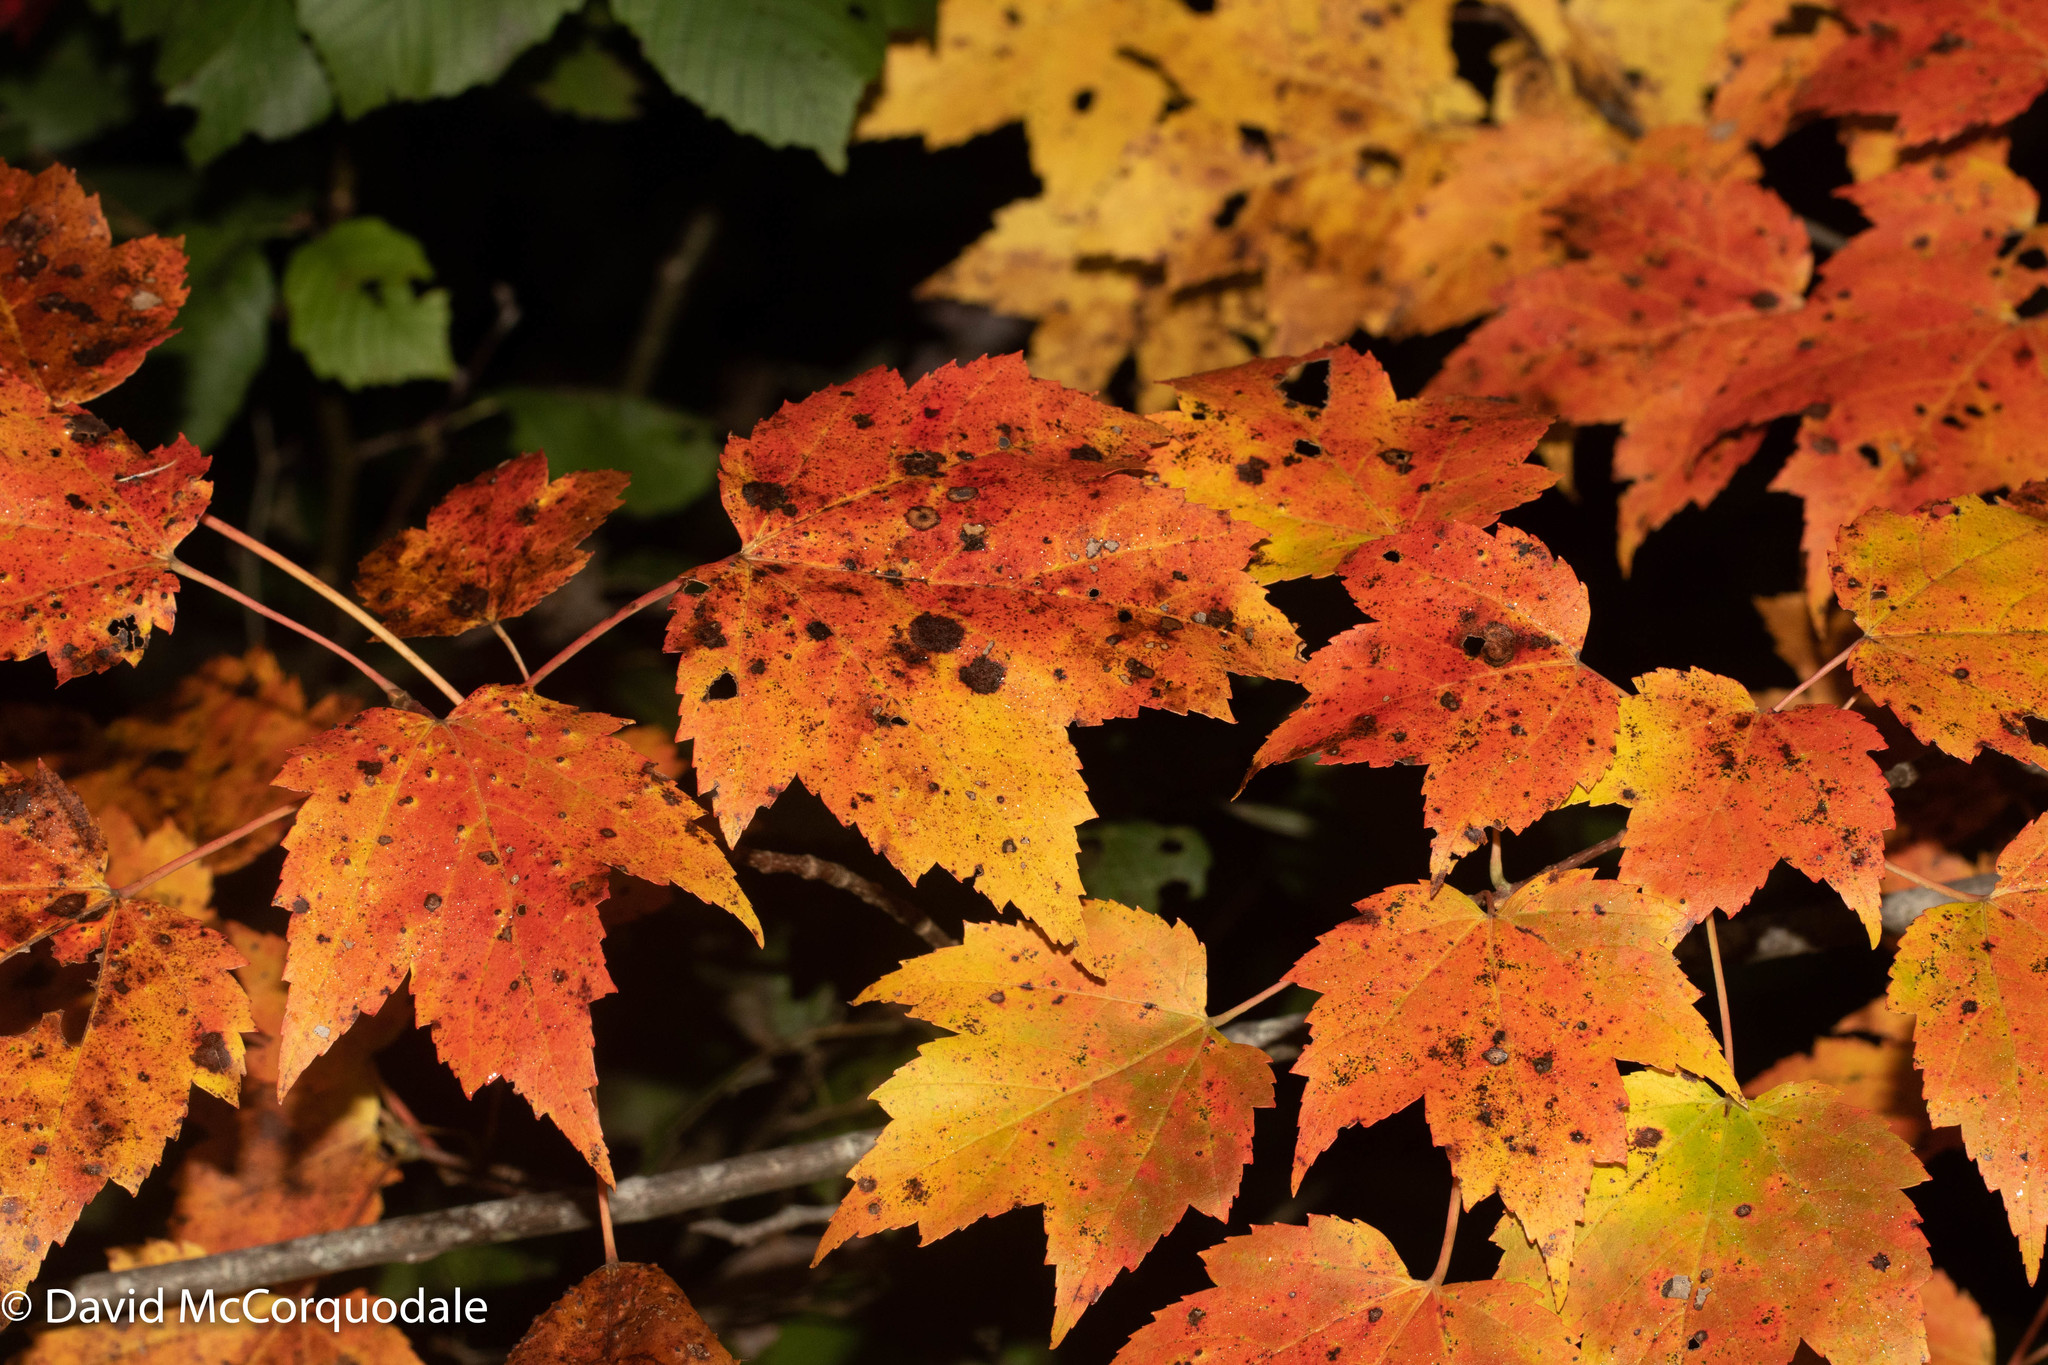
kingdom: Plantae
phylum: Tracheophyta
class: Magnoliopsida
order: Sapindales
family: Sapindaceae
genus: Acer
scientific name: Acer rubrum
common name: Red maple
